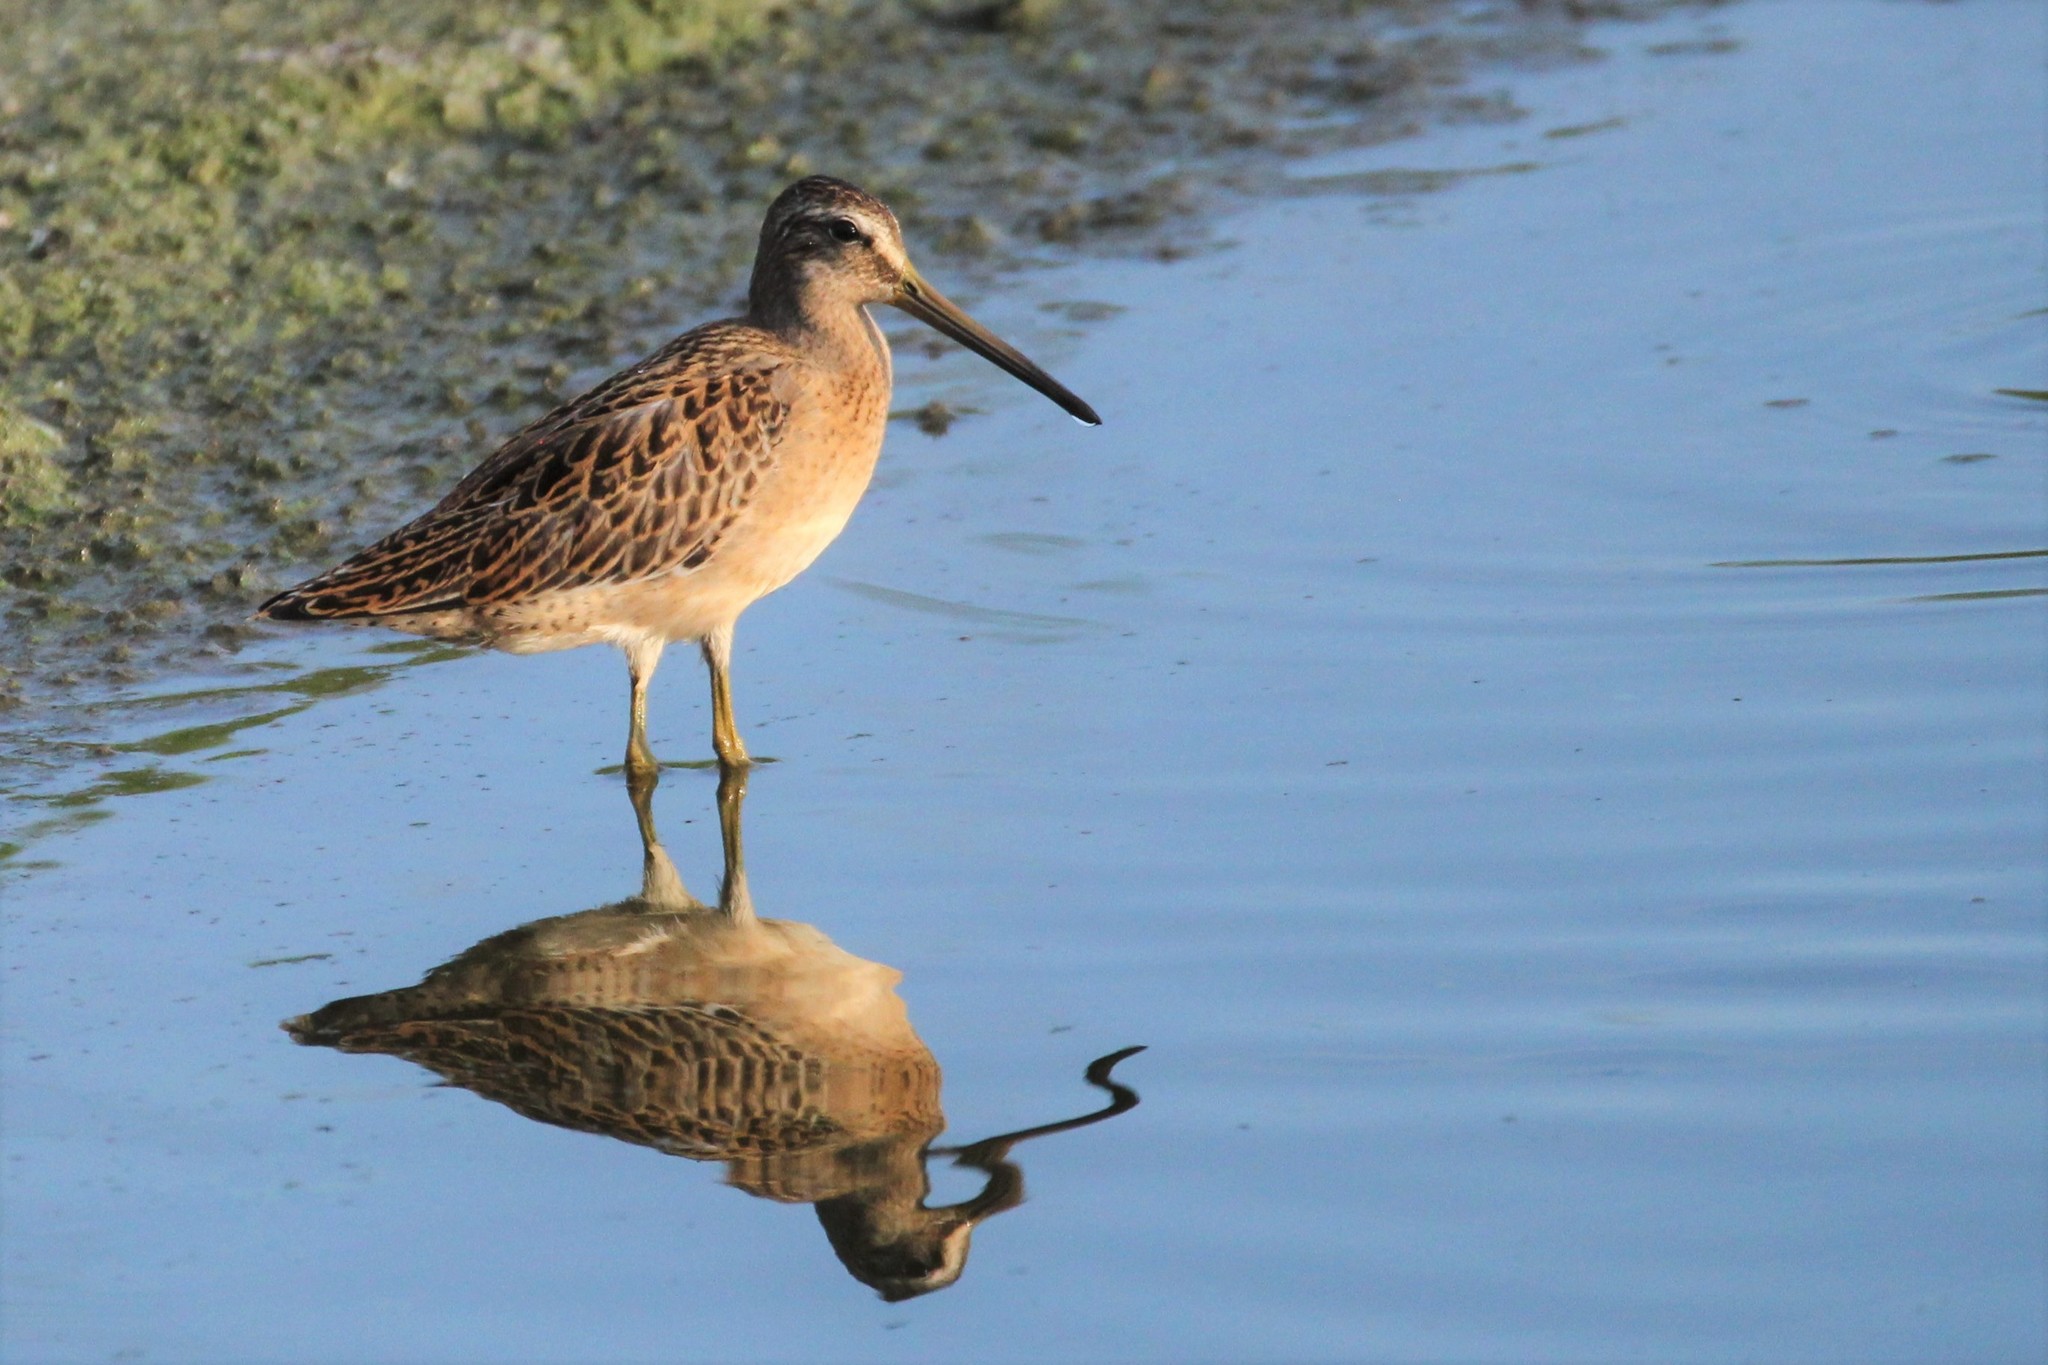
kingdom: Animalia
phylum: Chordata
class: Aves
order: Charadriiformes
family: Scolopacidae
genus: Limnodromus
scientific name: Limnodromus griseus
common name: Short-billed dowitcher
